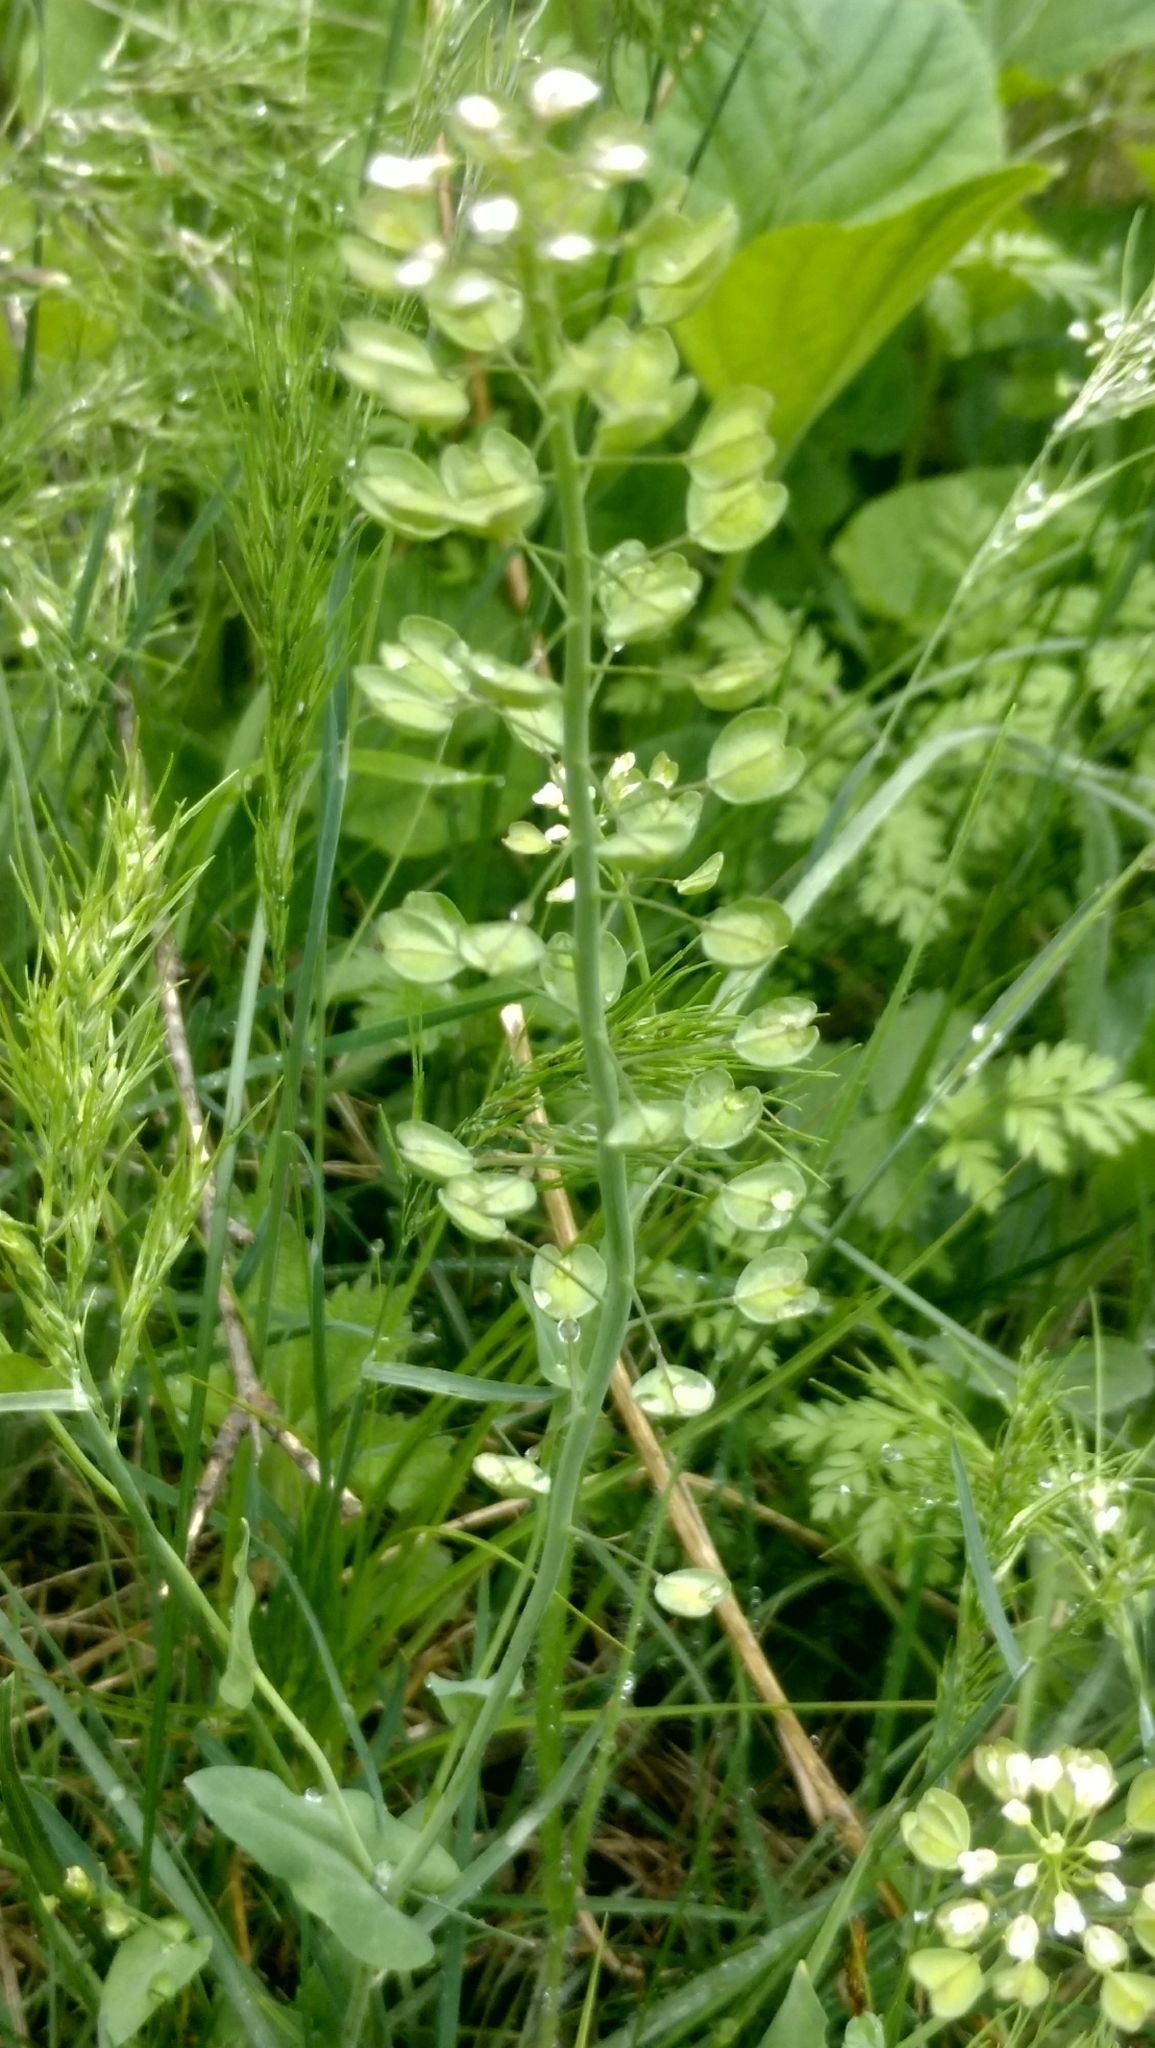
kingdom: Plantae
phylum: Tracheophyta
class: Magnoliopsida
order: Brassicales
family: Brassicaceae
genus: Noccaea
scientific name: Noccaea perfoliata
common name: Perfoliate pennycress
